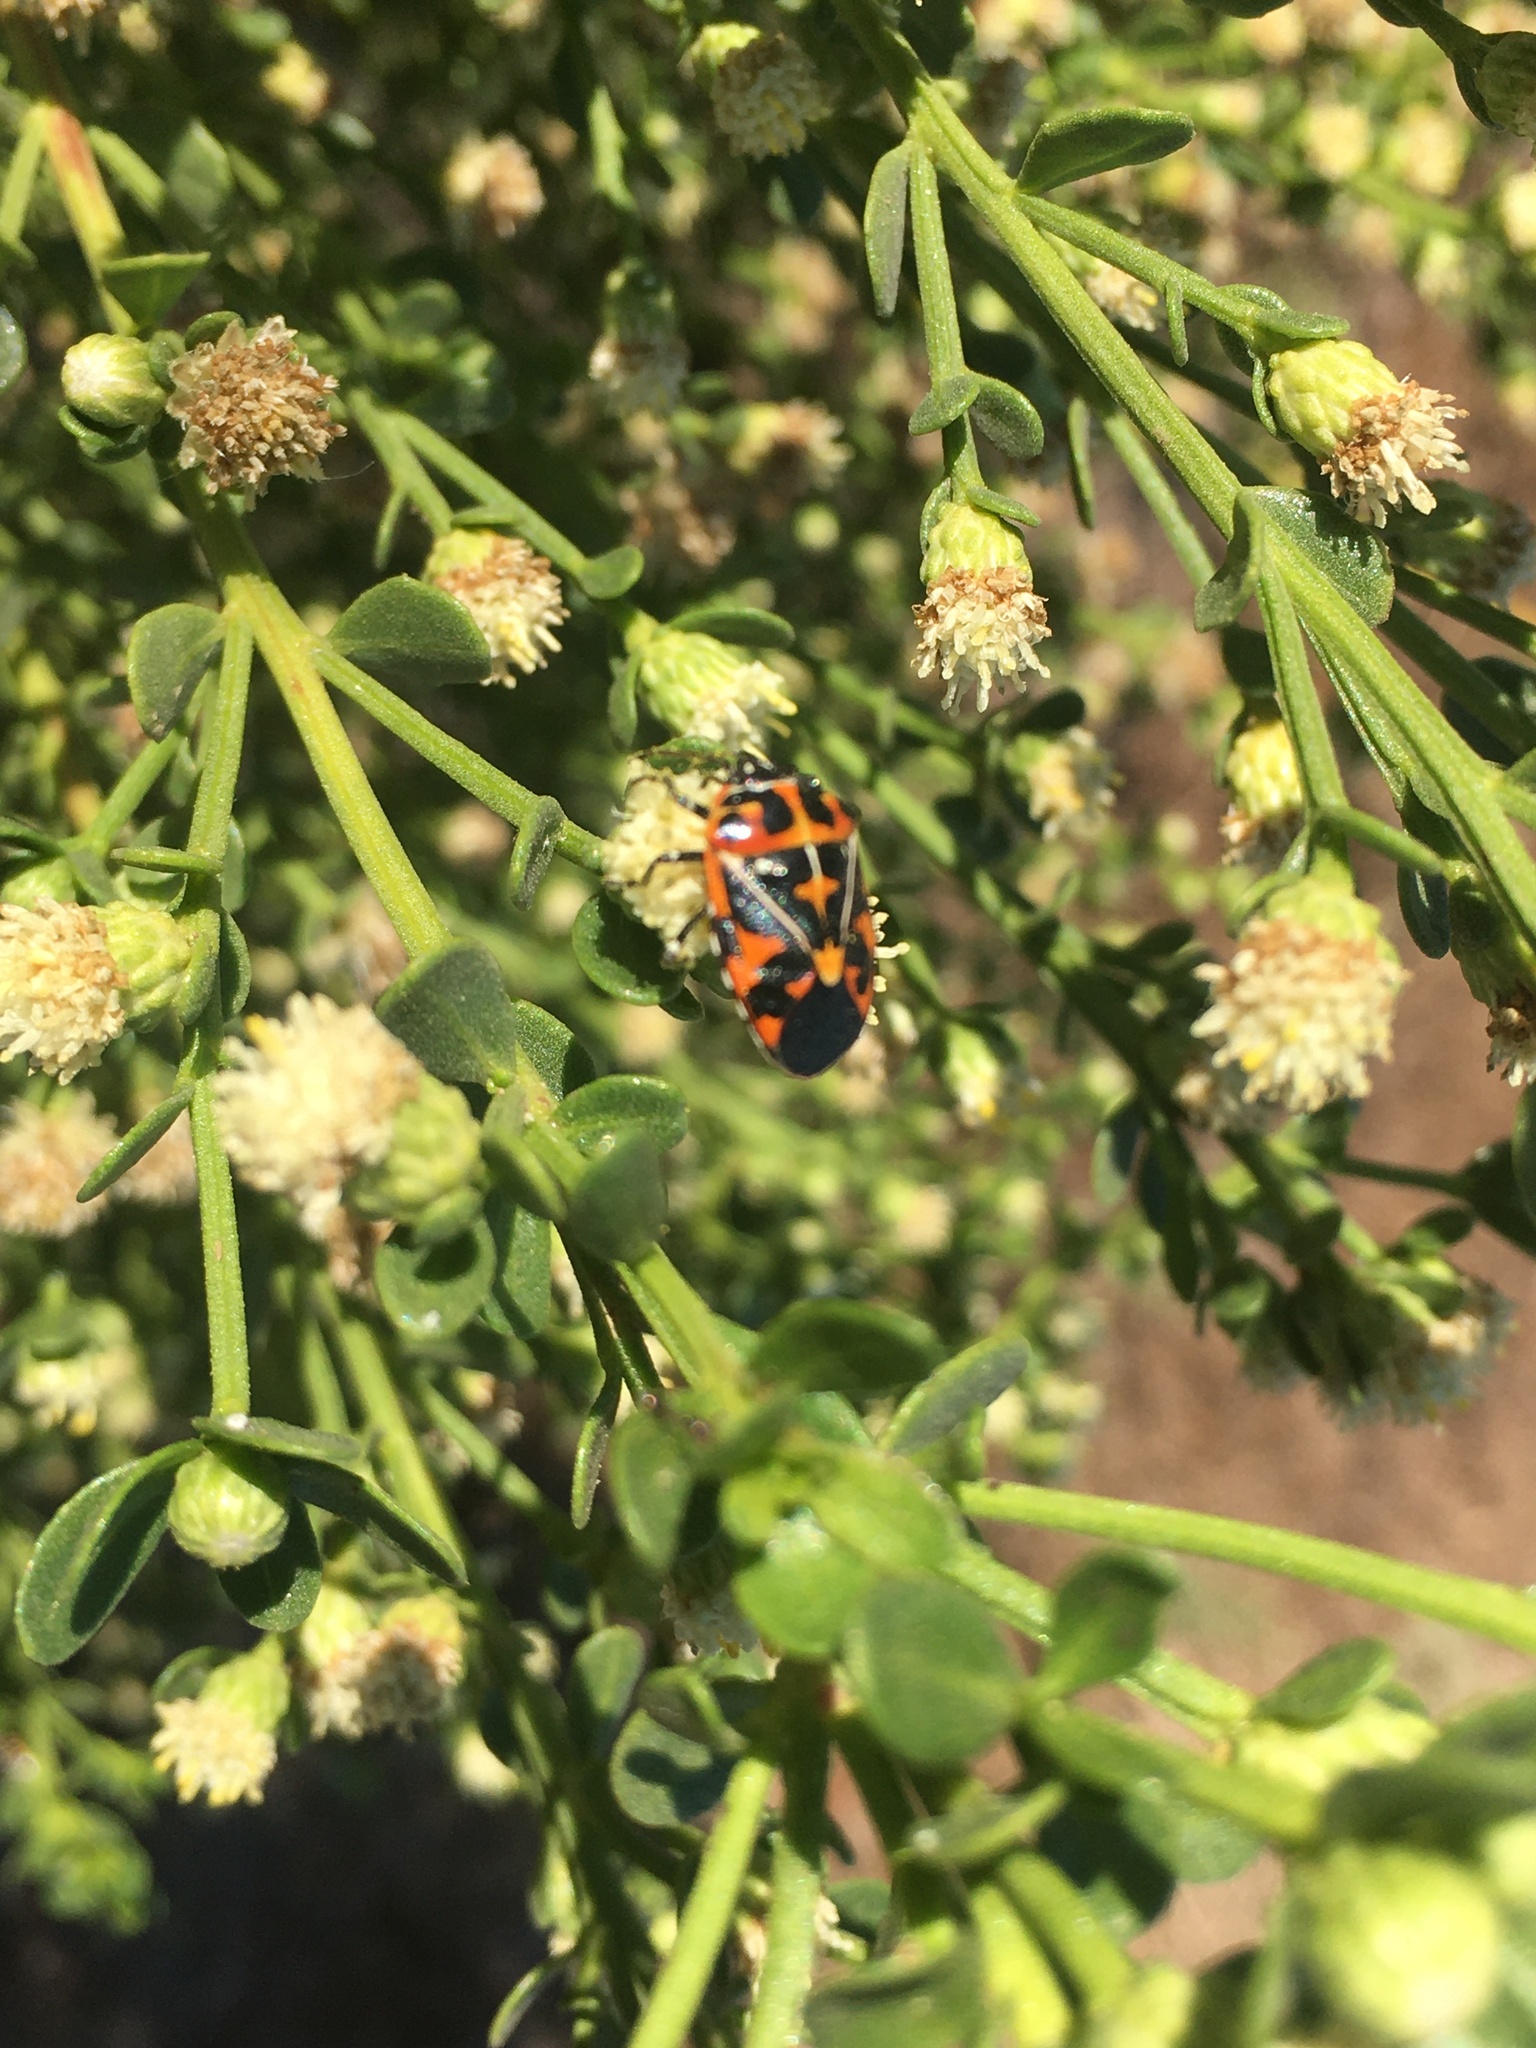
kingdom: Animalia
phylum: Arthropoda
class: Insecta
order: Hemiptera
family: Pentatomidae
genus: Murgantia
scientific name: Murgantia histrionica
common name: Harlequin bug
